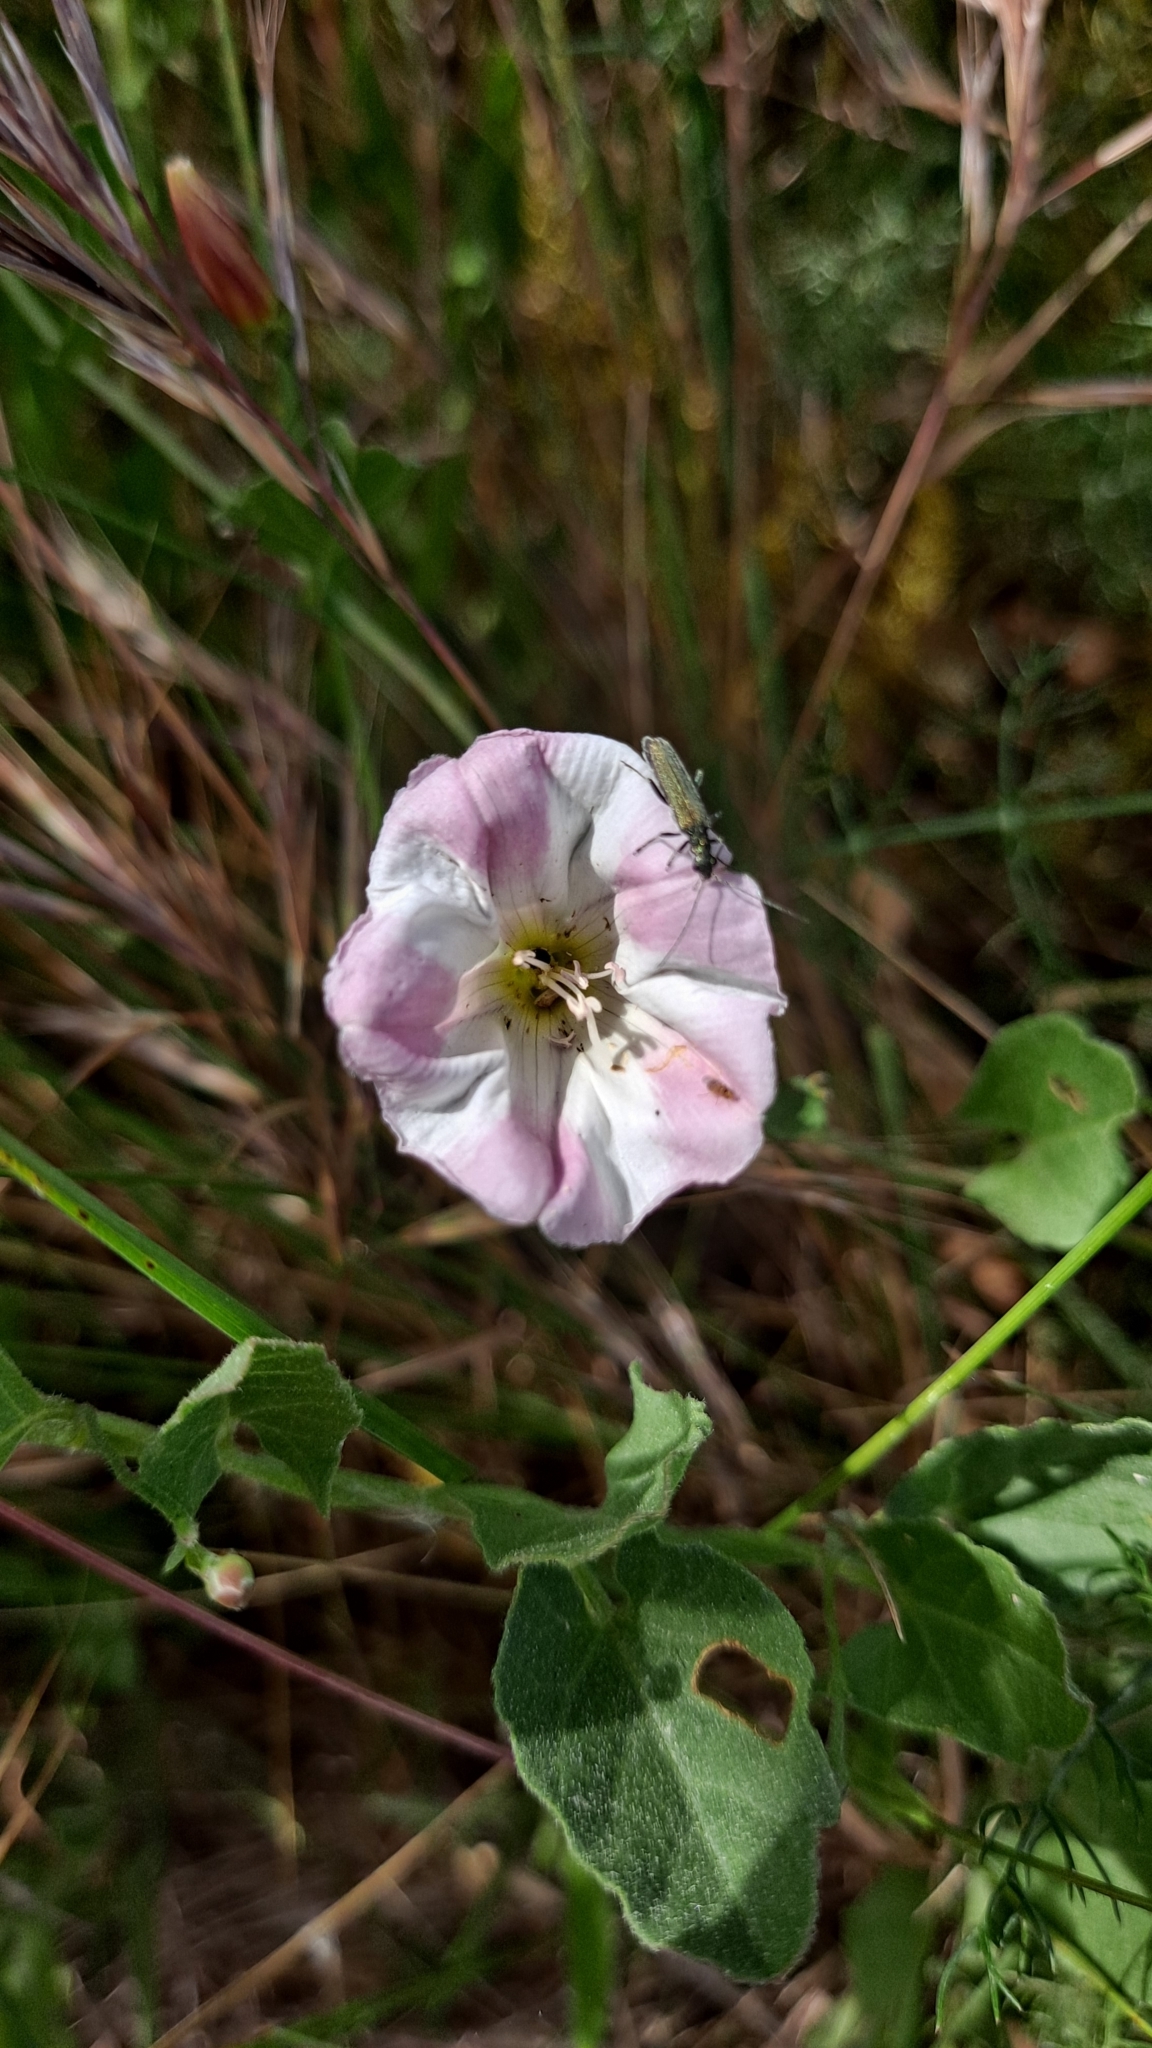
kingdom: Plantae
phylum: Tracheophyta
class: Magnoliopsida
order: Solanales
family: Convolvulaceae
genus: Convolvulus
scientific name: Convolvulus arvensis
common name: Field bindweed
